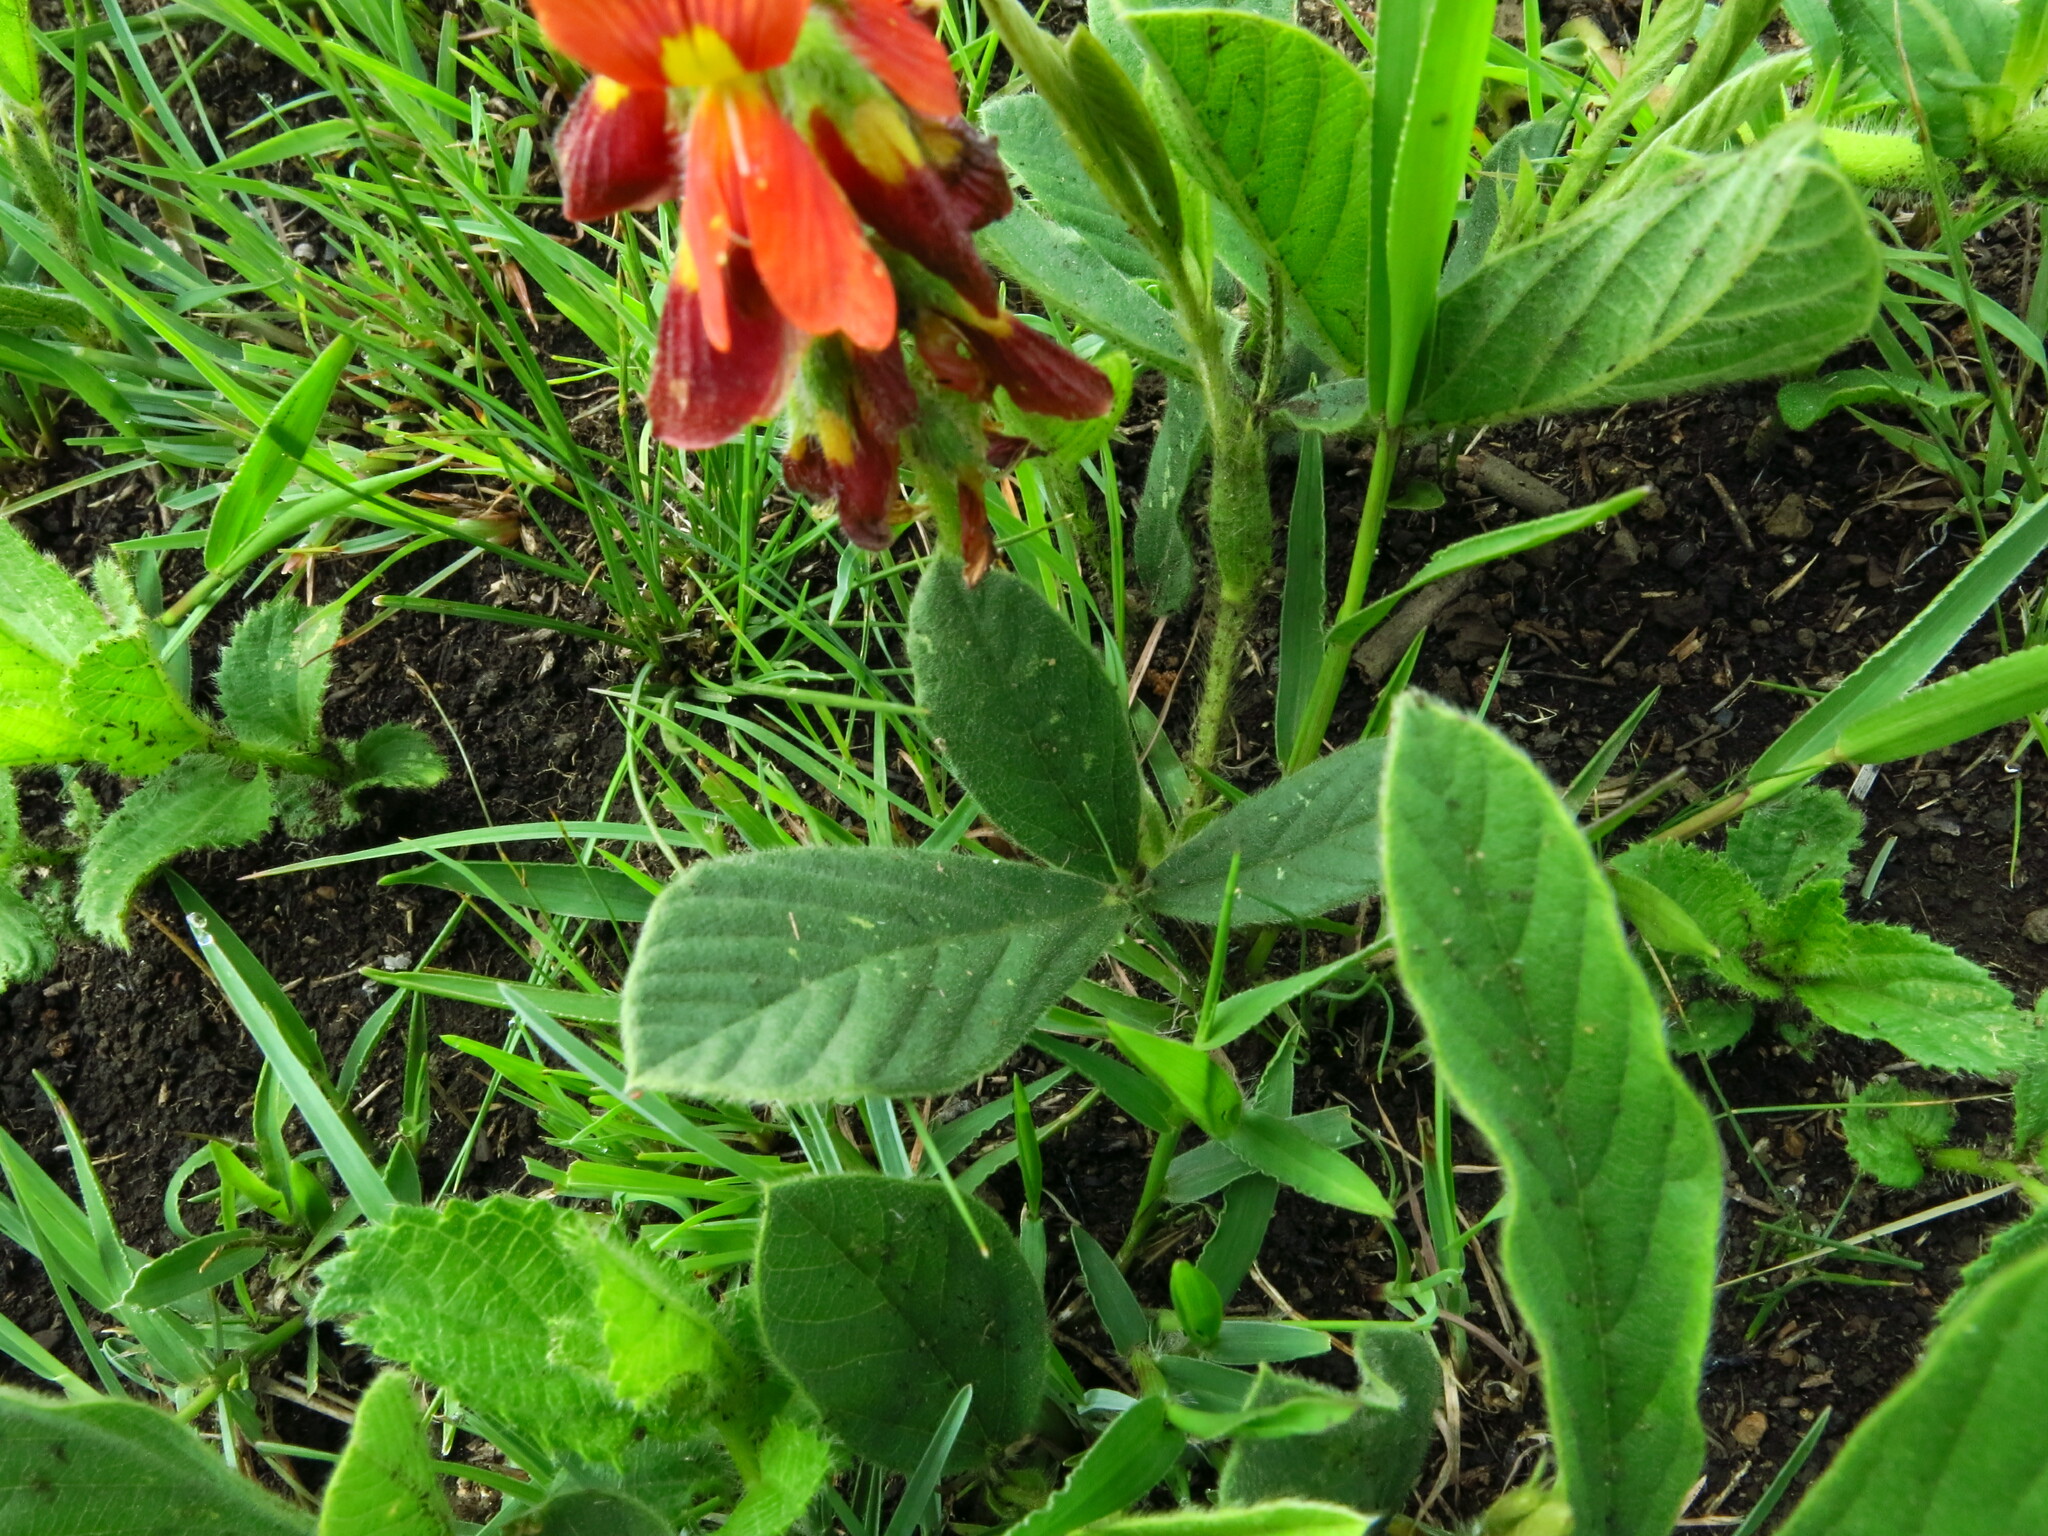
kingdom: Plantae
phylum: Tracheophyta
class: Magnoliopsida
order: Fabales
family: Fabaceae
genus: Eriosema
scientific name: Eriosema distinctum
